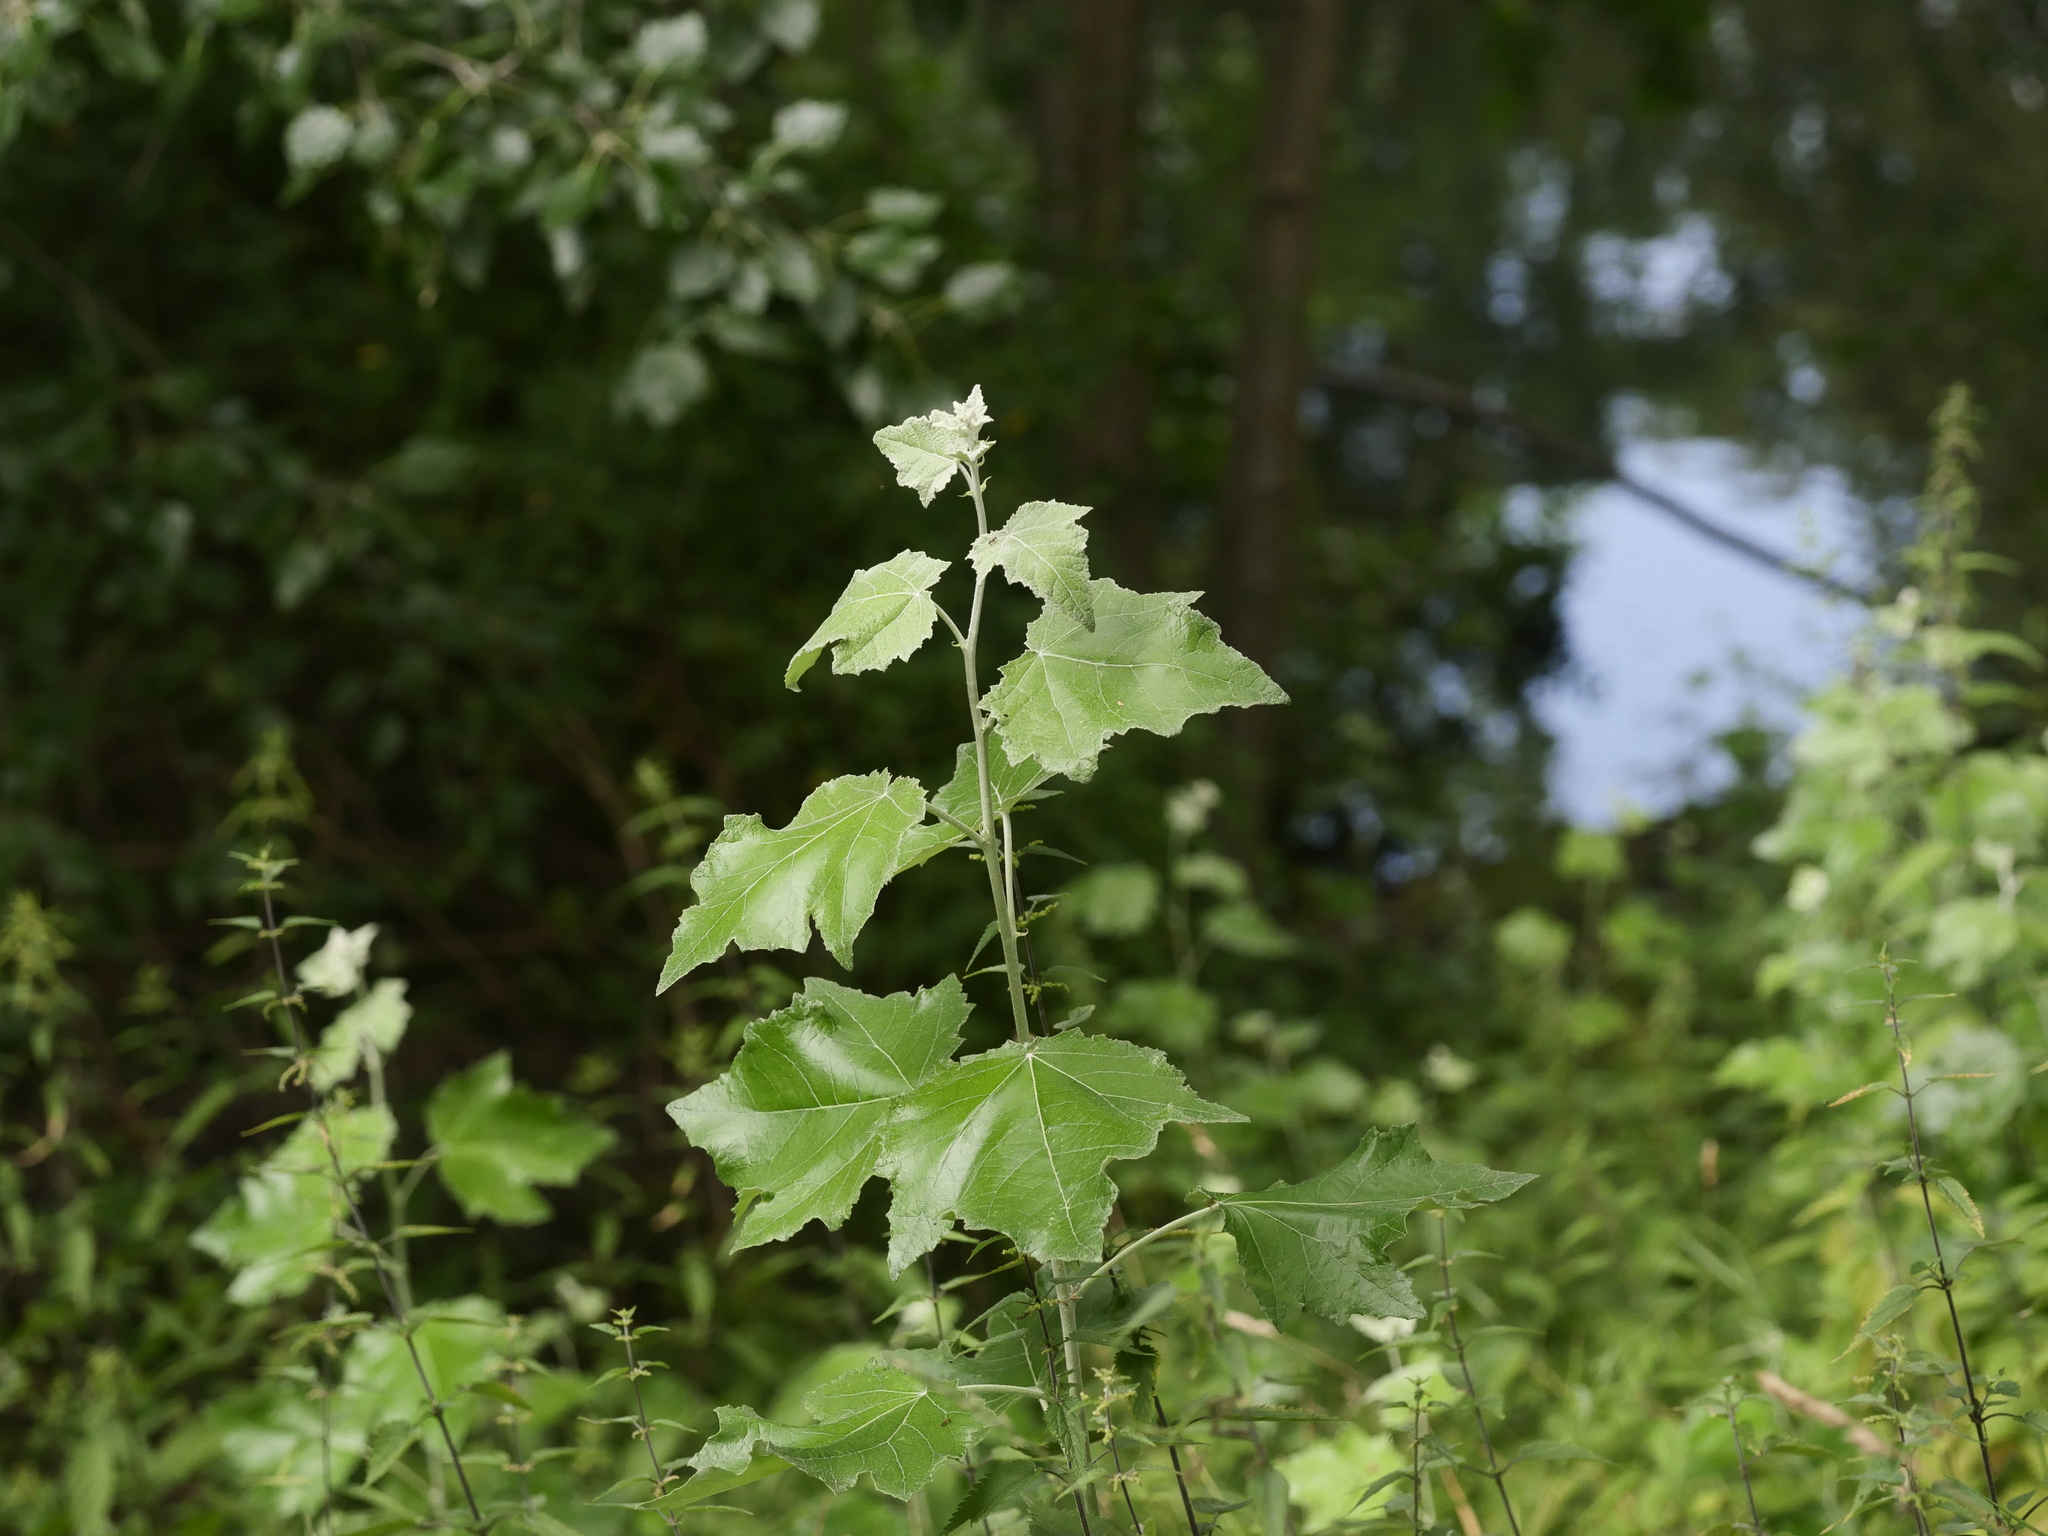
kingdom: Plantae
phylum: Tracheophyta
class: Magnoliopsida
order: Malpighiales
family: Salicaceae
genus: Populus
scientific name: Populus alba
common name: White poplar
